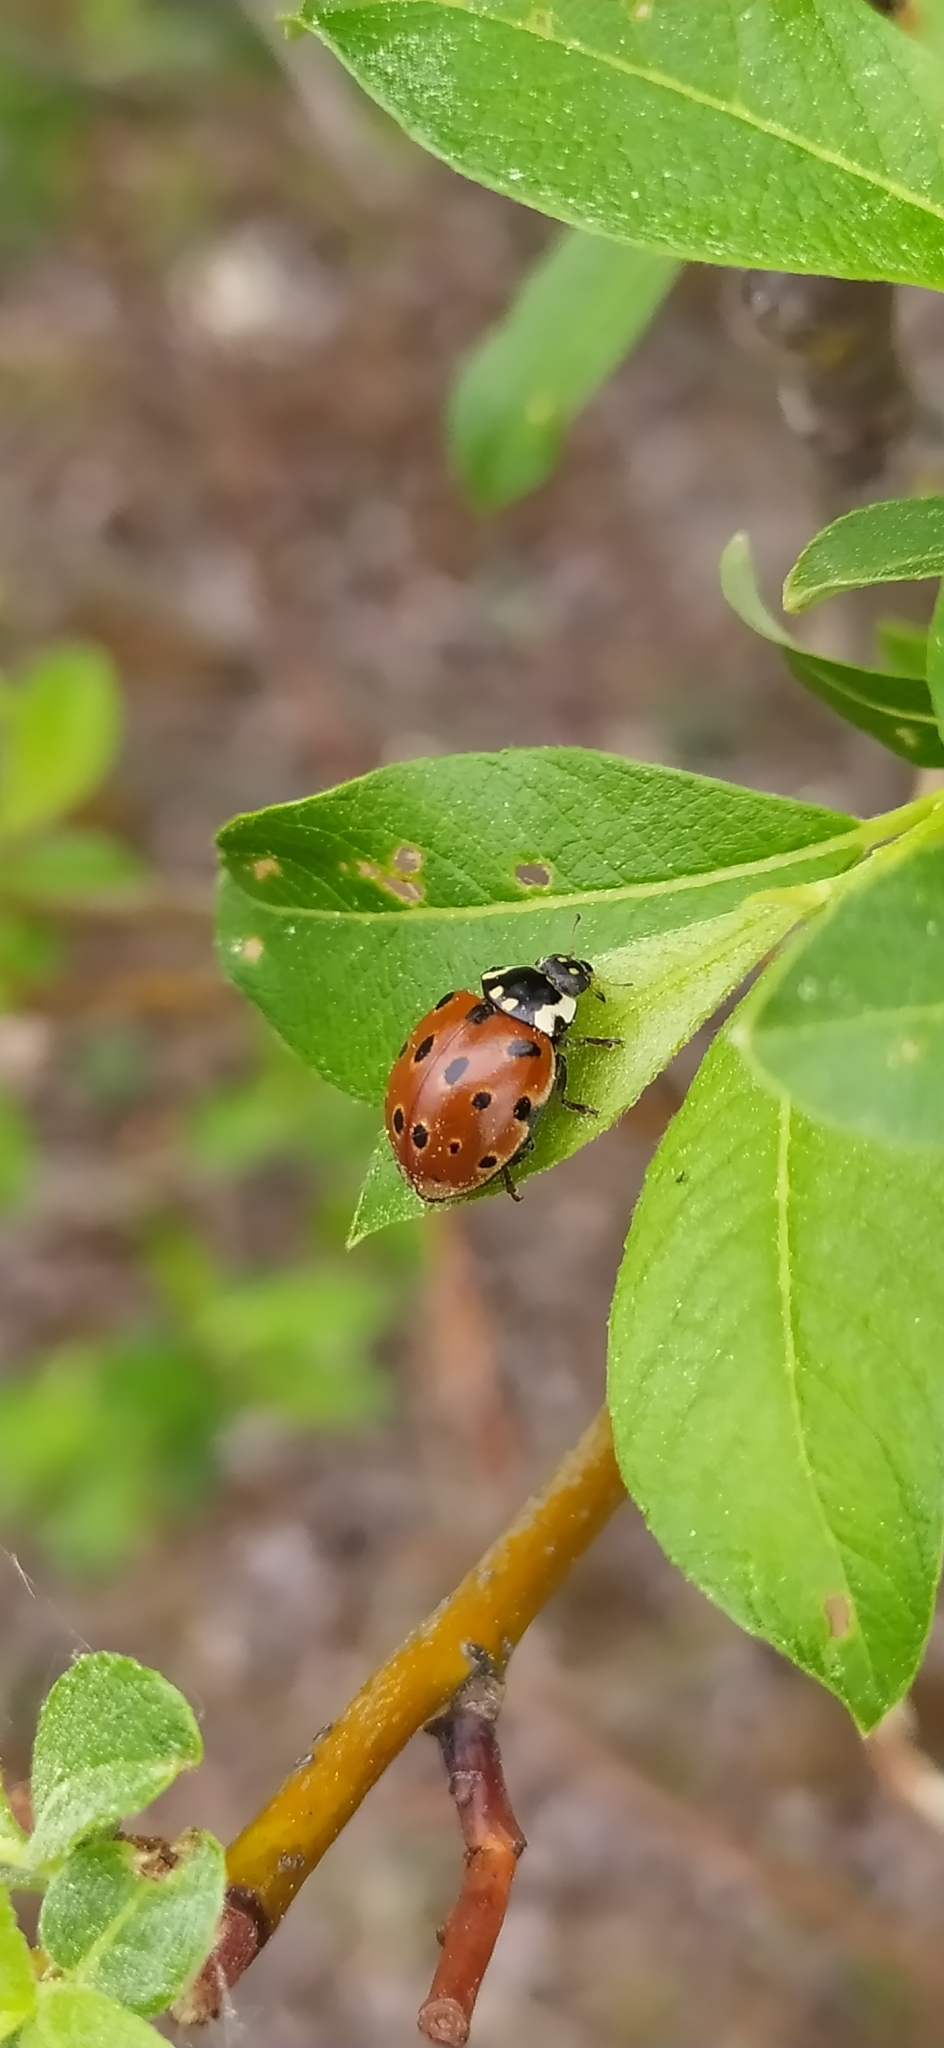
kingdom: Animalia
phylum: Arthropoda
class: Insecta
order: Coleoptera
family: Coccinellidae
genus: Anatis
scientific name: Anatis ocellata
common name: Eyed ladybird
